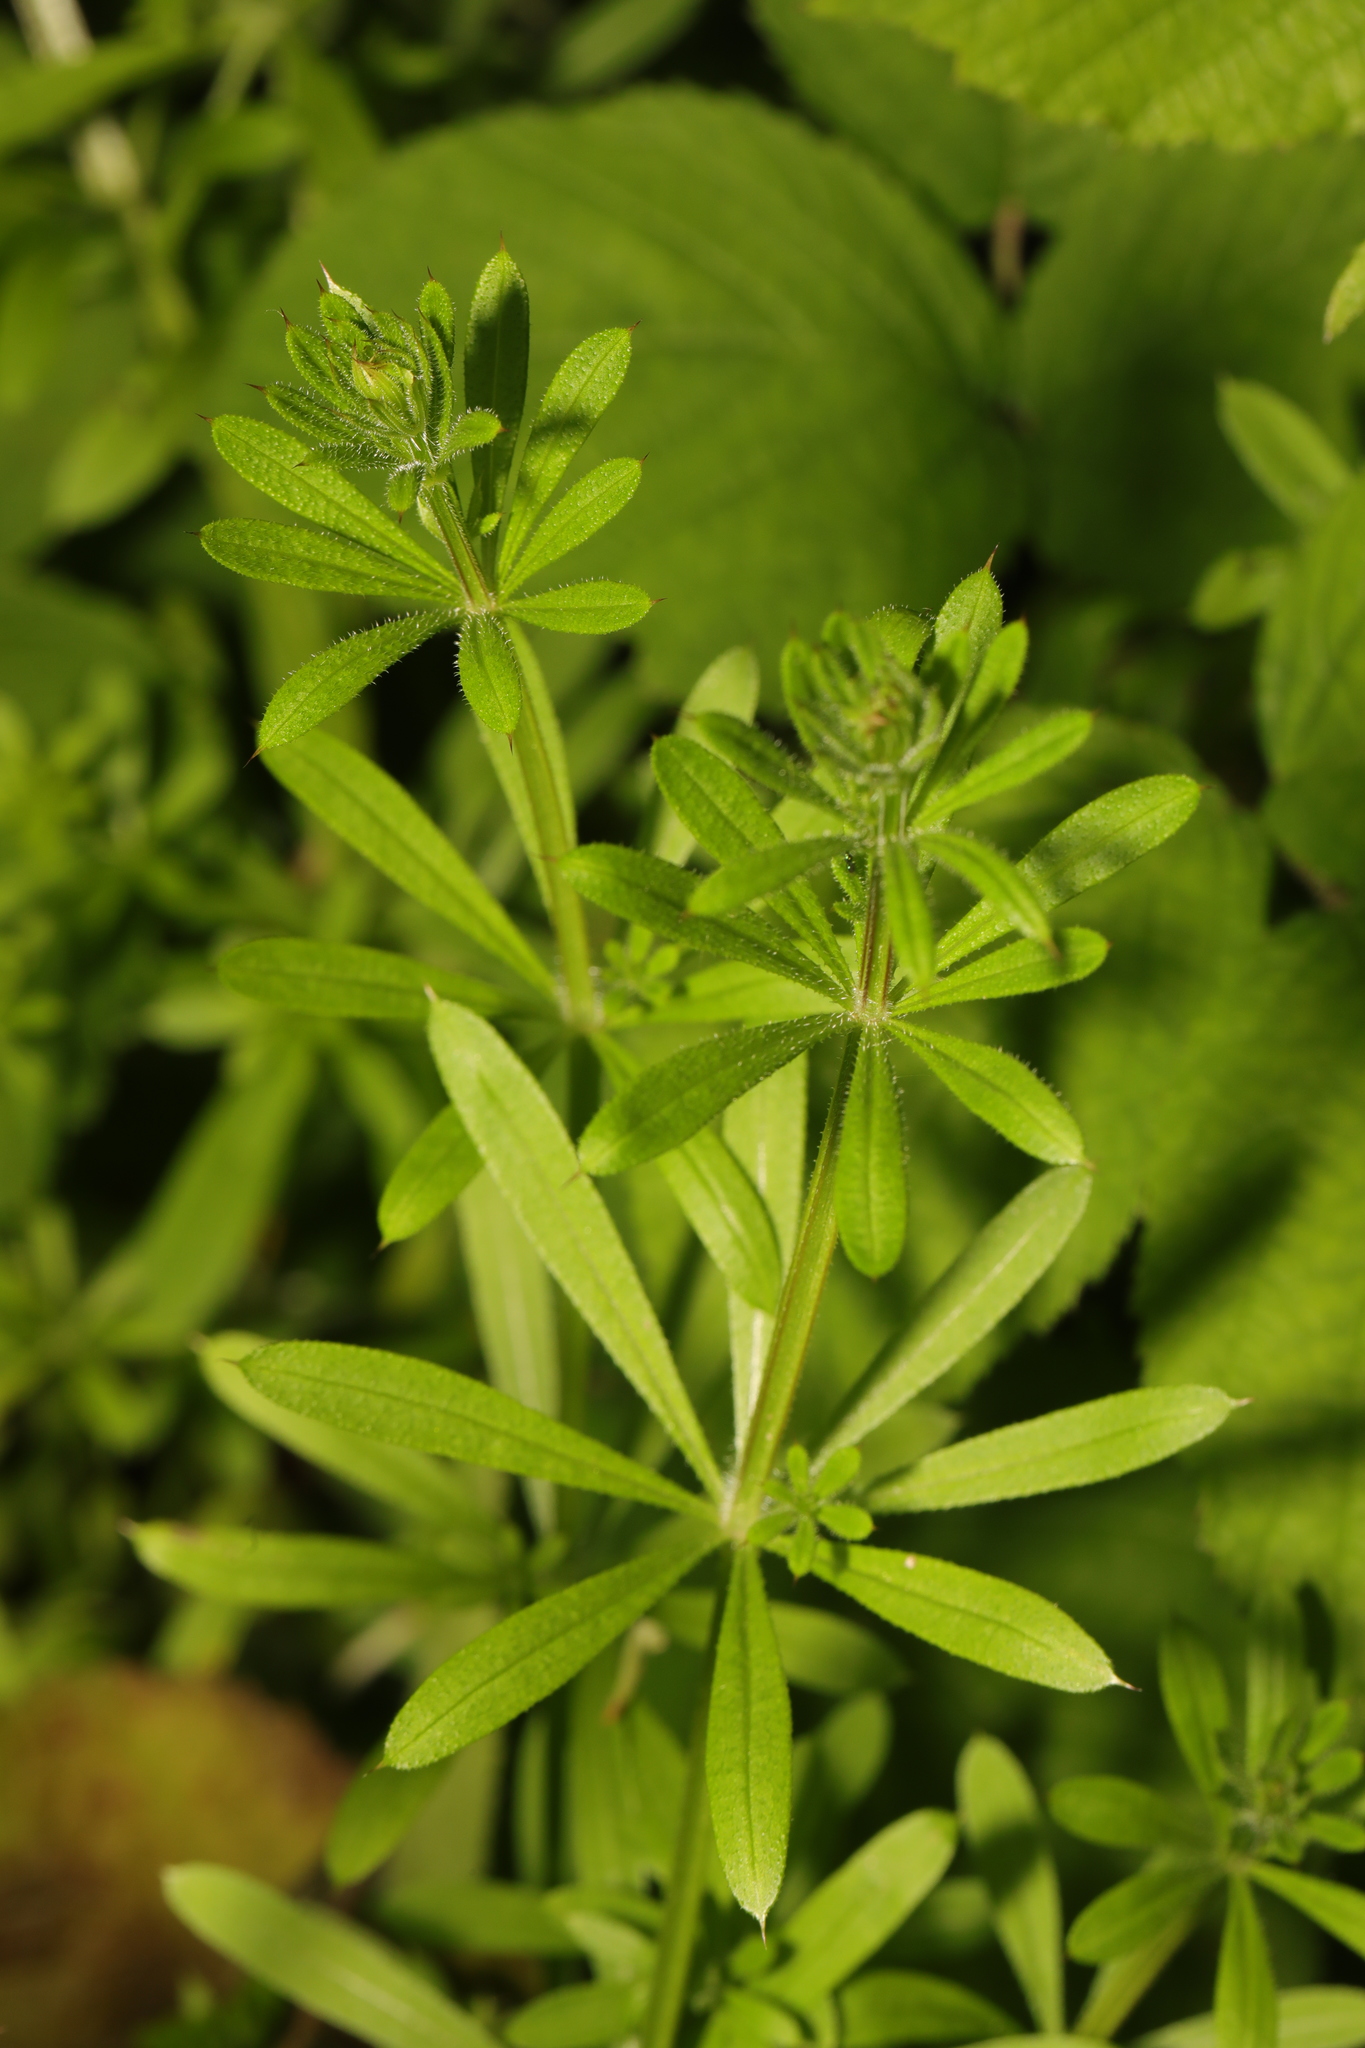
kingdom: Plantae
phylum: Tracheophyta
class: Magnoliopsida
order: Gentianales
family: Rubiaceae
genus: Galium
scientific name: Galium aparine
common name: Cleavers
